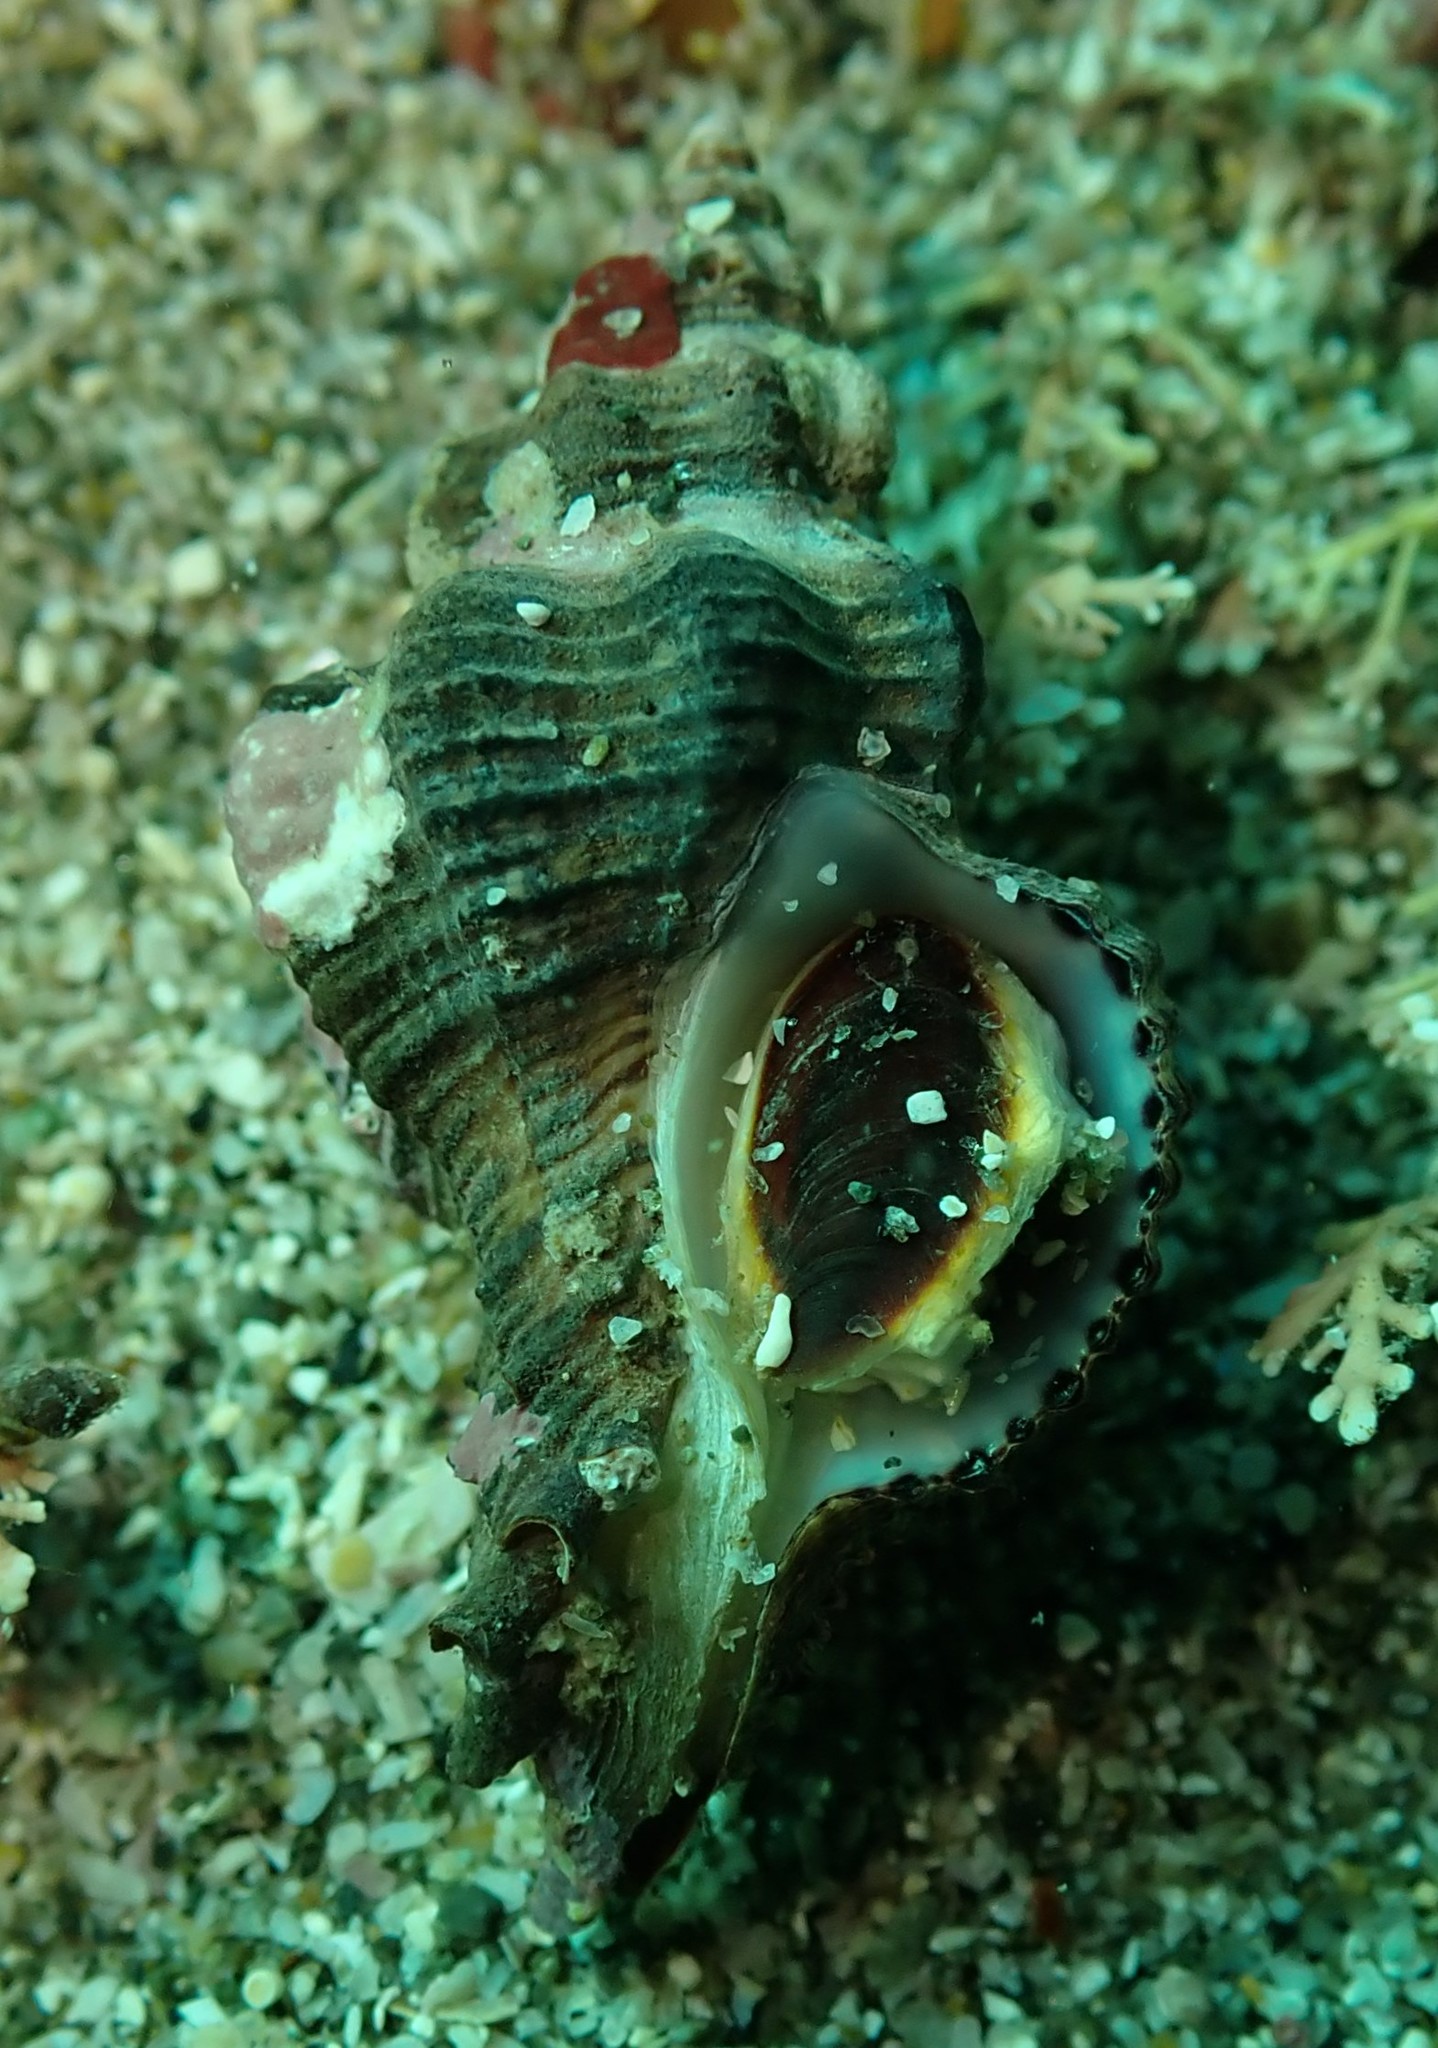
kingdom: Animalia
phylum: Mollusca
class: Gastropoda
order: Neogastropoda
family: Muricidae
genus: Murexsul
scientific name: Murexsul octogonus
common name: Octagon murex
